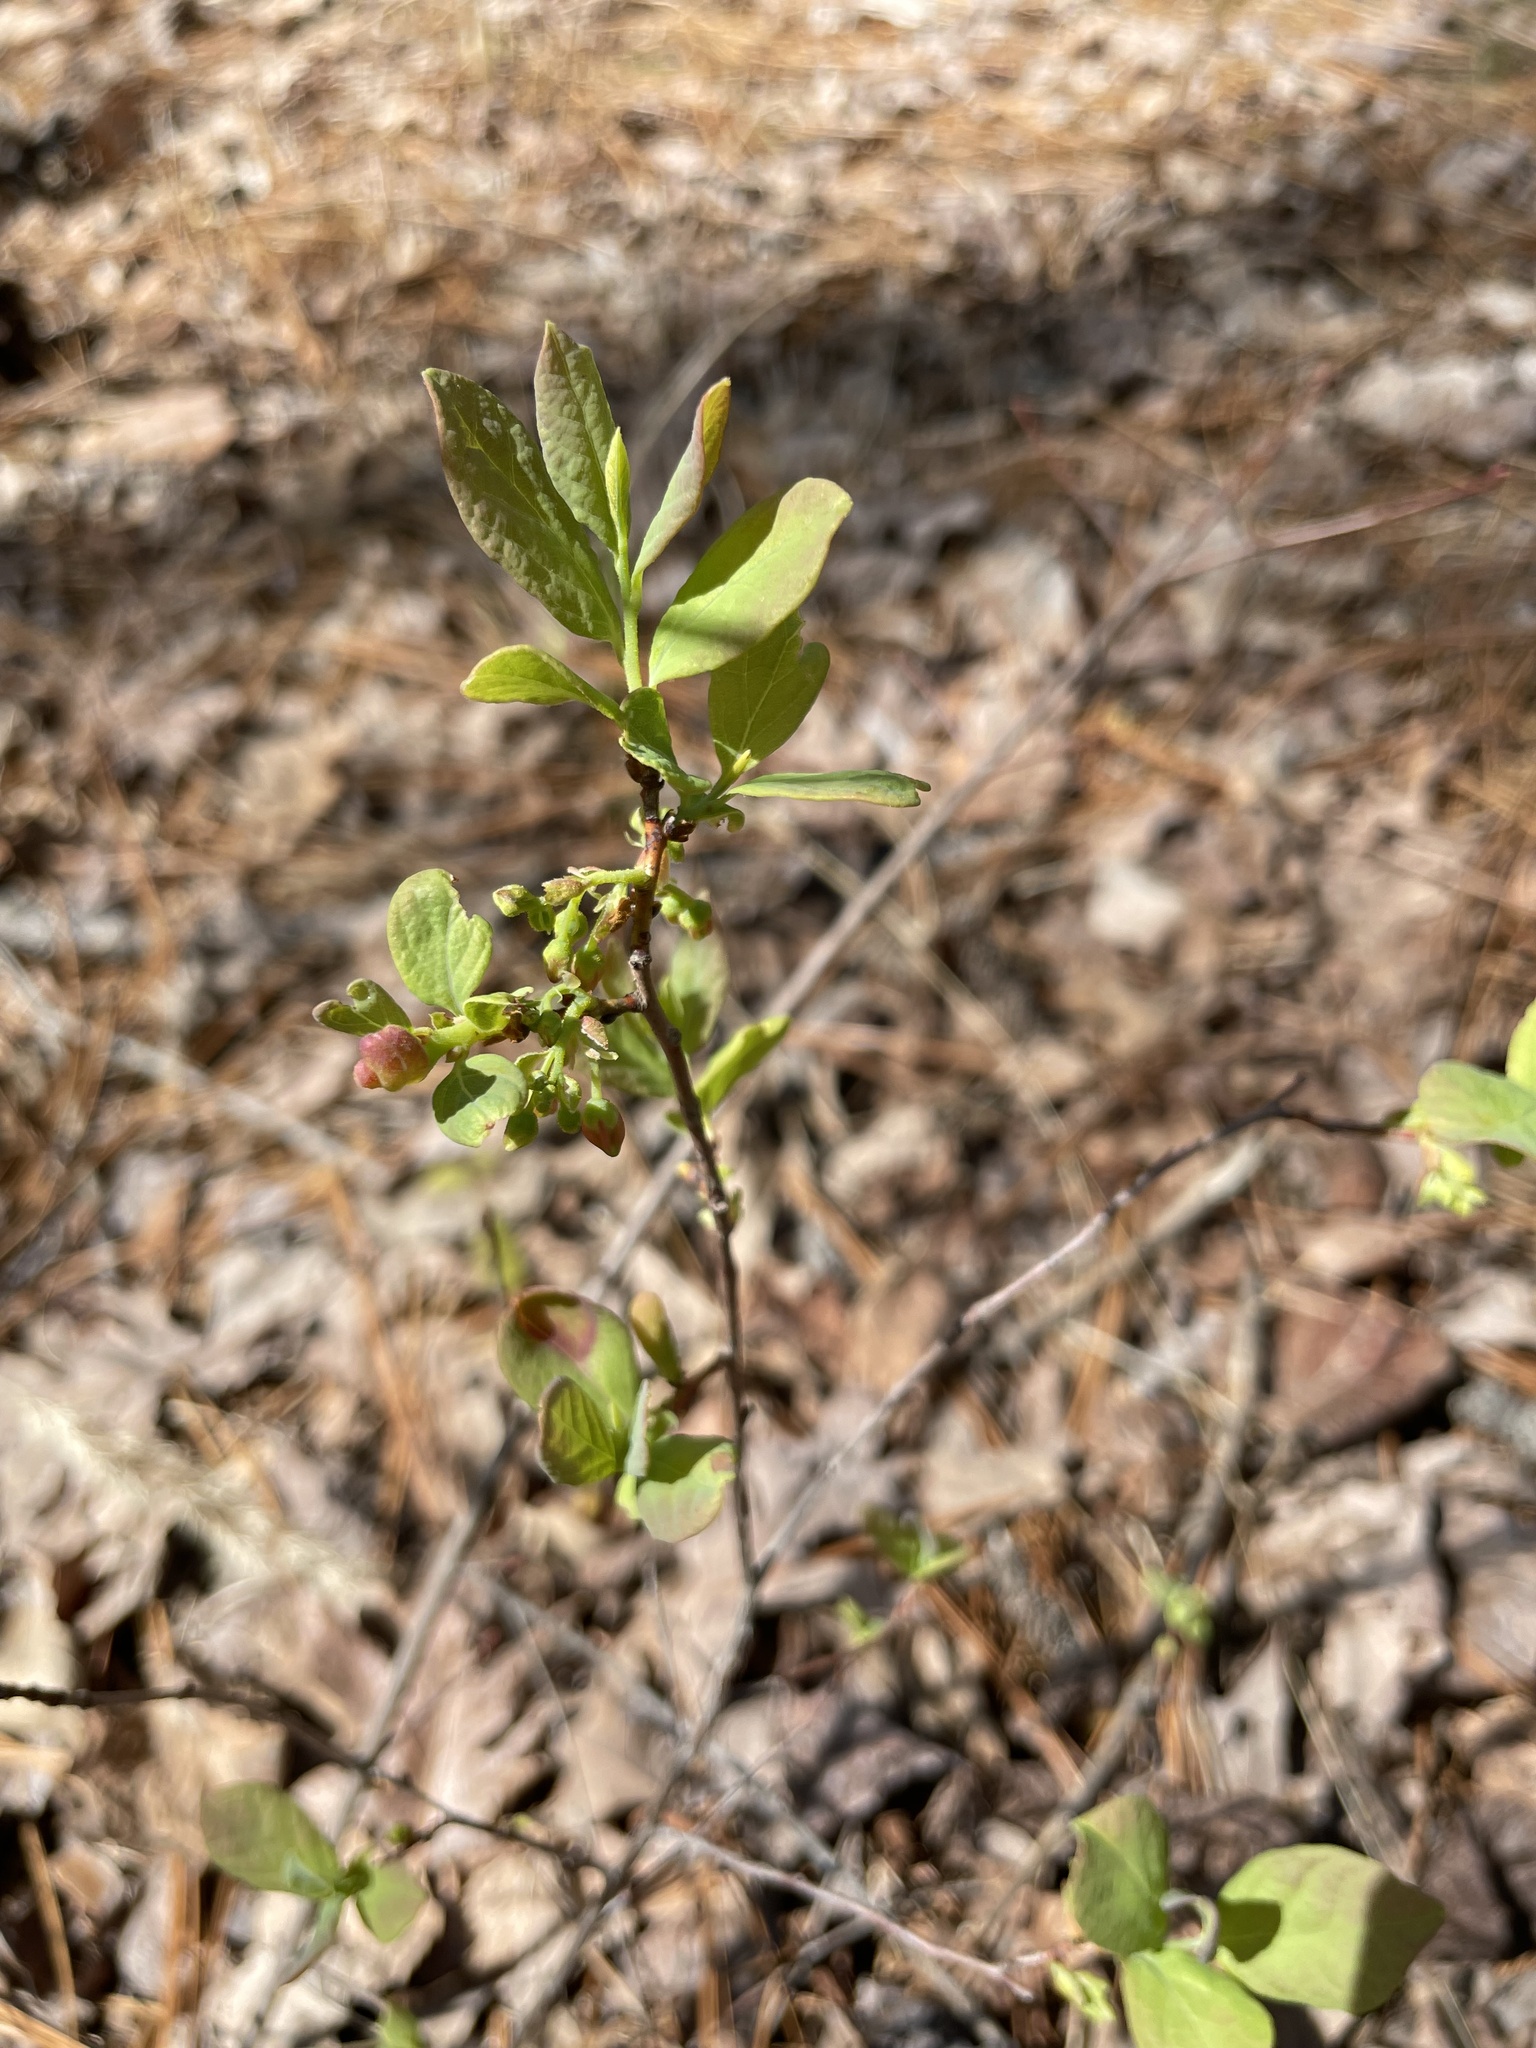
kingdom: Plantae
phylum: Tracheophyta
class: Magnoliopsida
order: Ericales
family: Ericaceae
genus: Gaylussacia
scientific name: Gaylussacia frondosa
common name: Dangleberry
